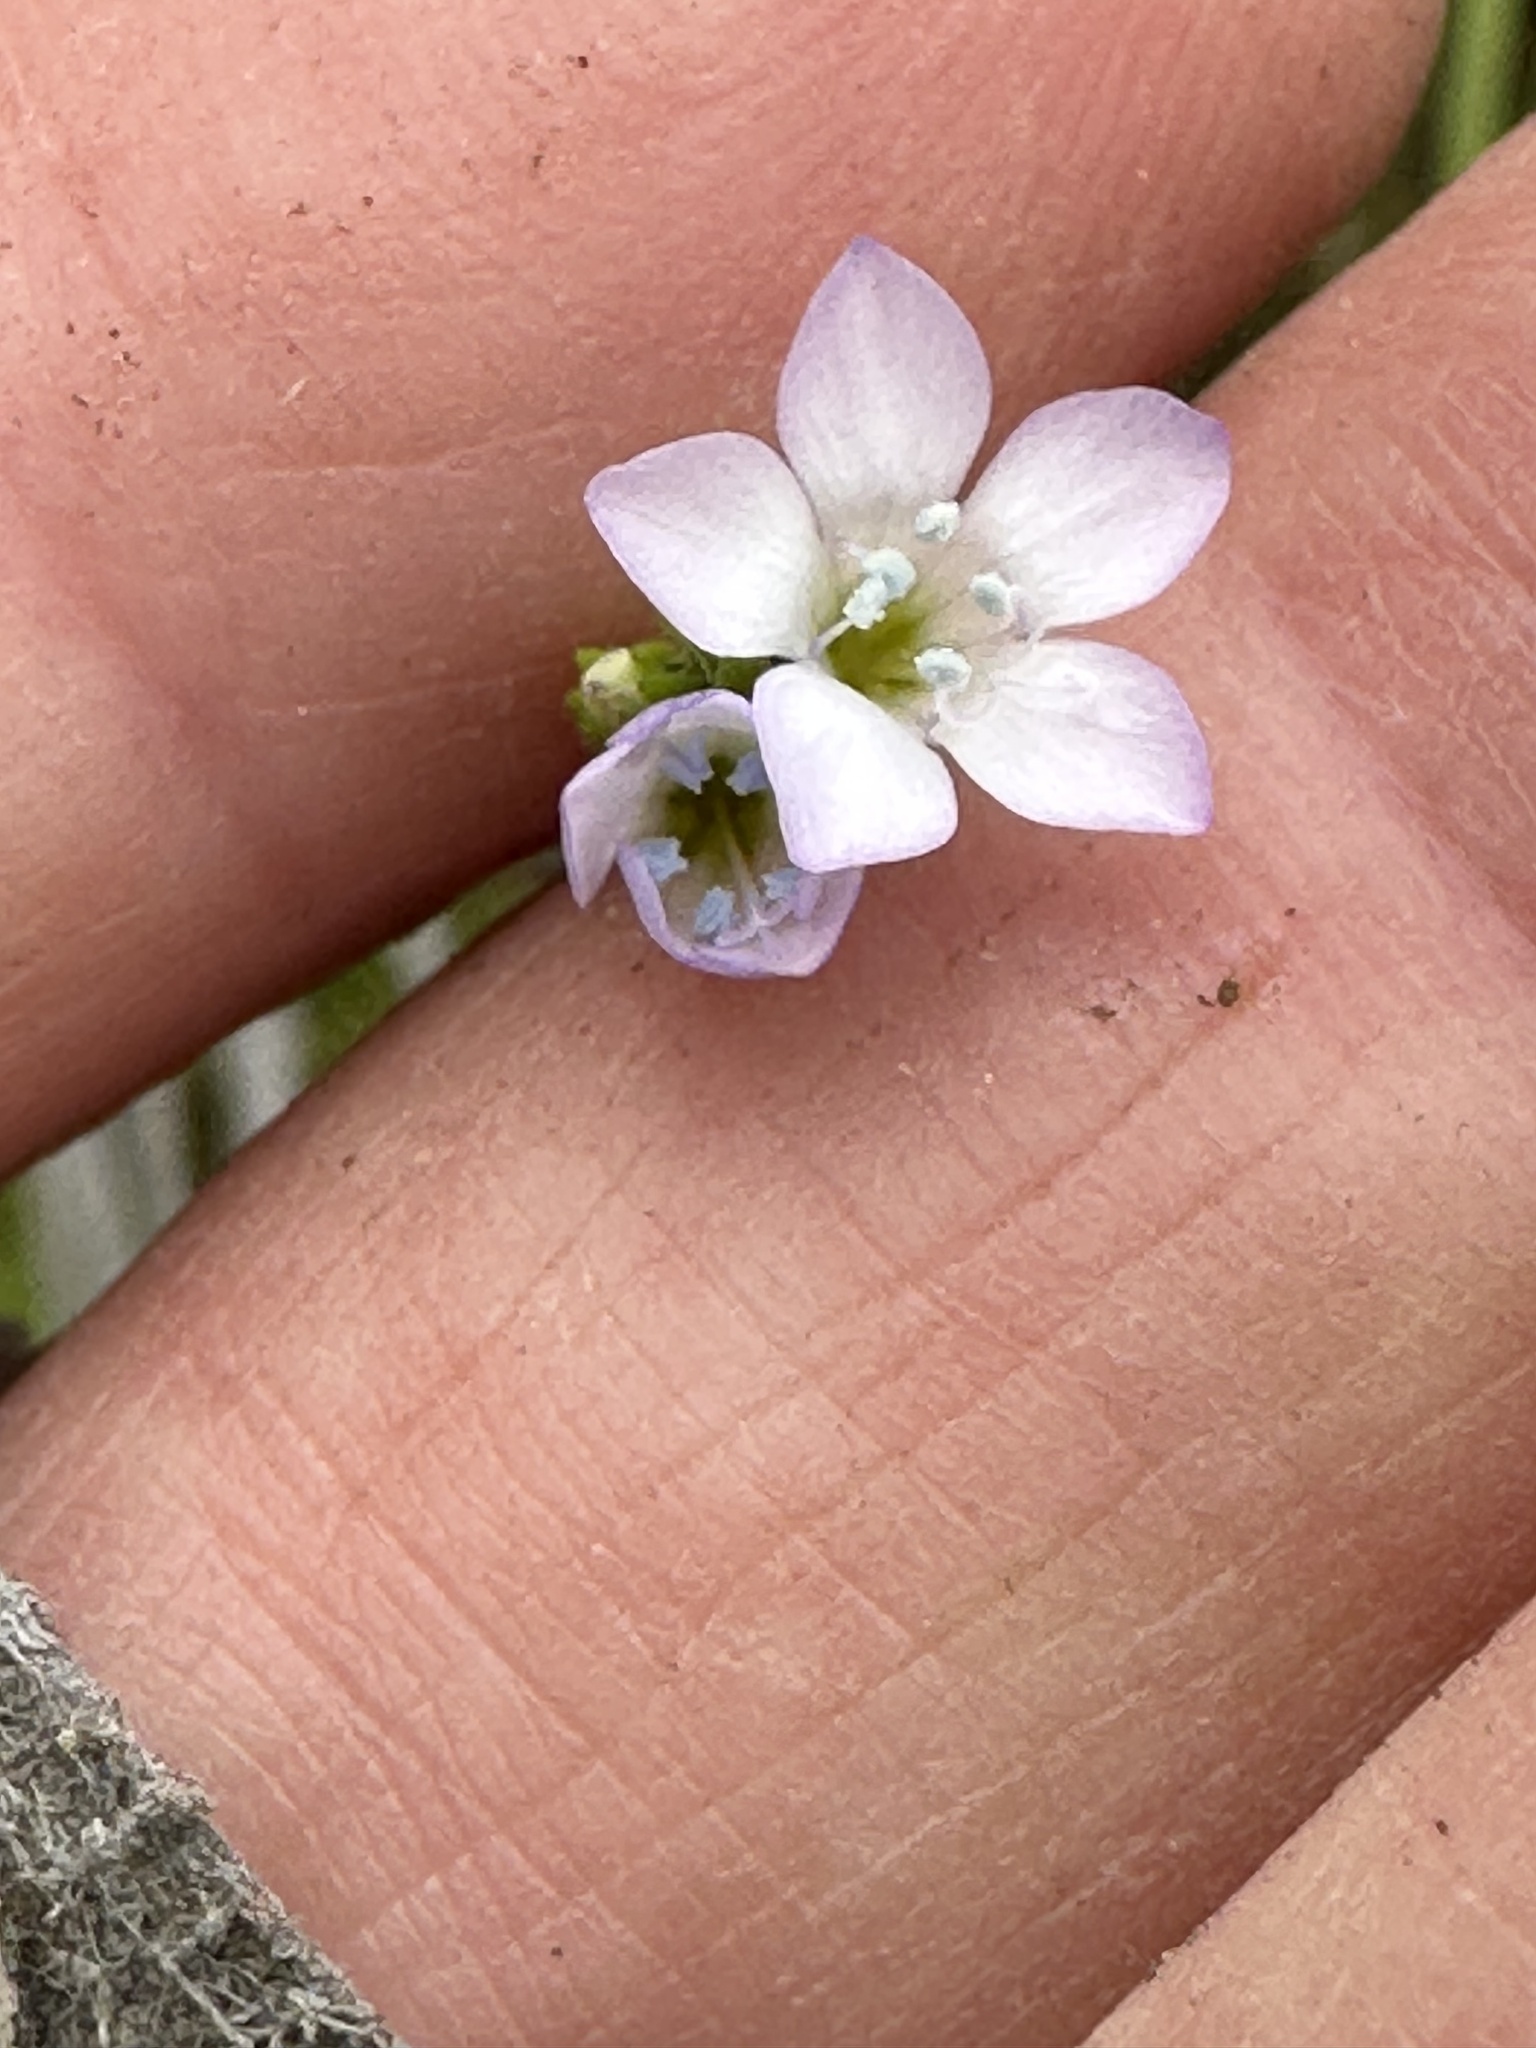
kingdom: Plantae
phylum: Tracheophyta
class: Magnoliopsida
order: Ericales
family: Polemoniaceae
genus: Gilia
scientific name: Gilia angelensis
